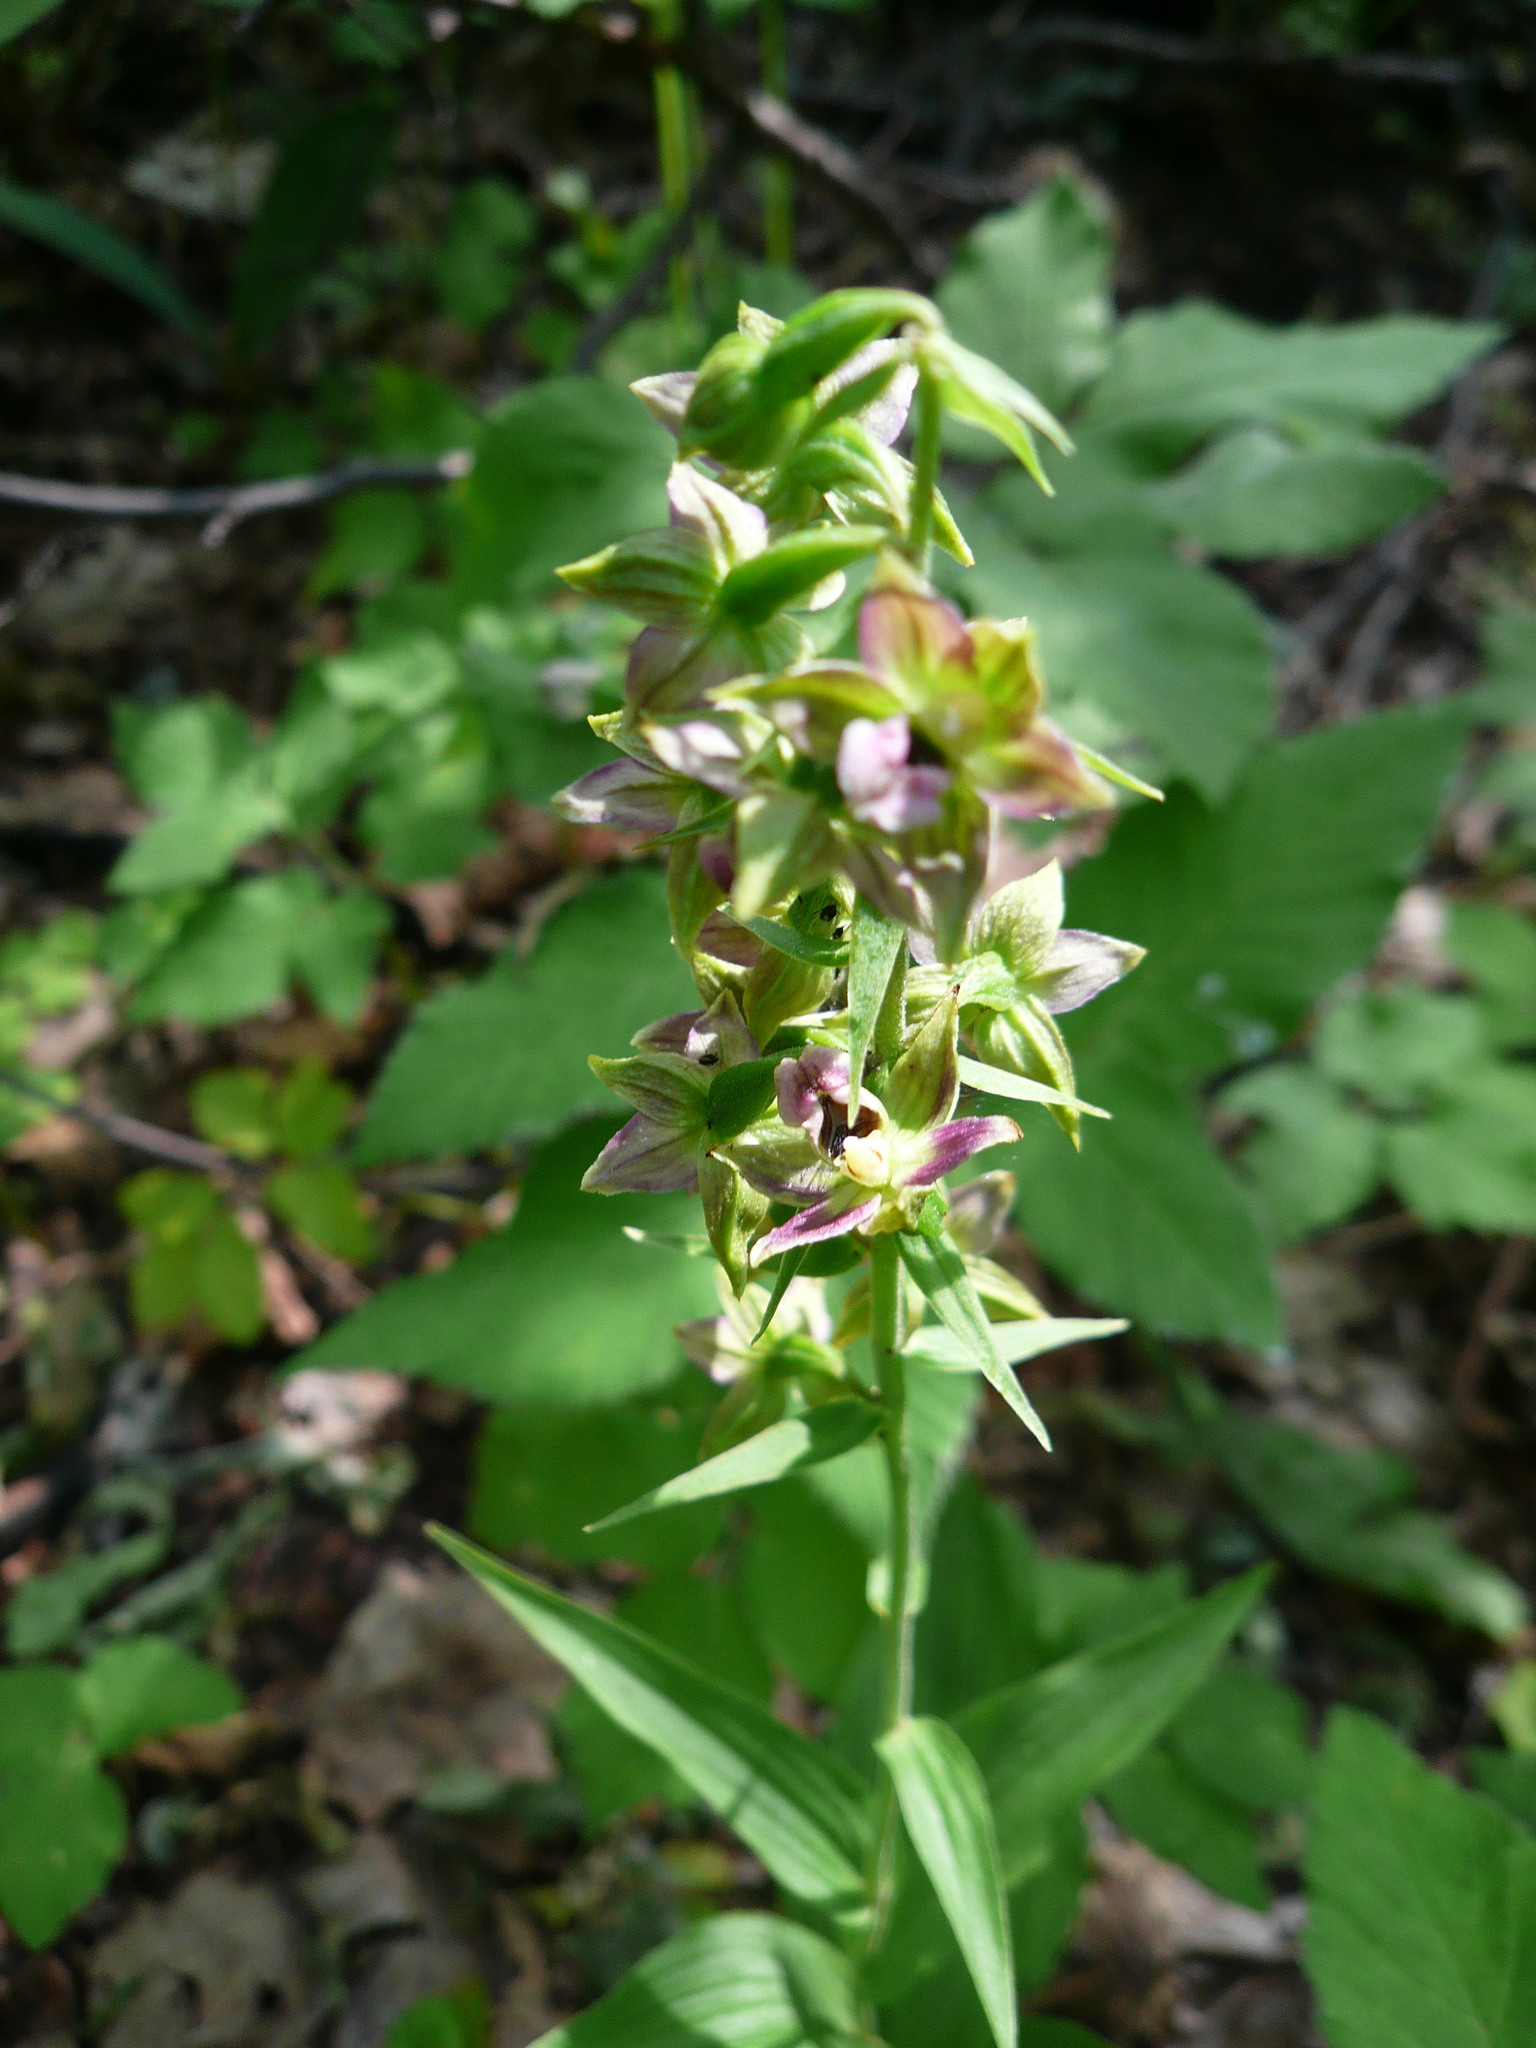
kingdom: Plantae
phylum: Tracheophyta
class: Liliopsida
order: Asparagales
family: Orchidaceae
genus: Epipactis
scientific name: Epipactis helleborine
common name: Broad-leaved helleborine
